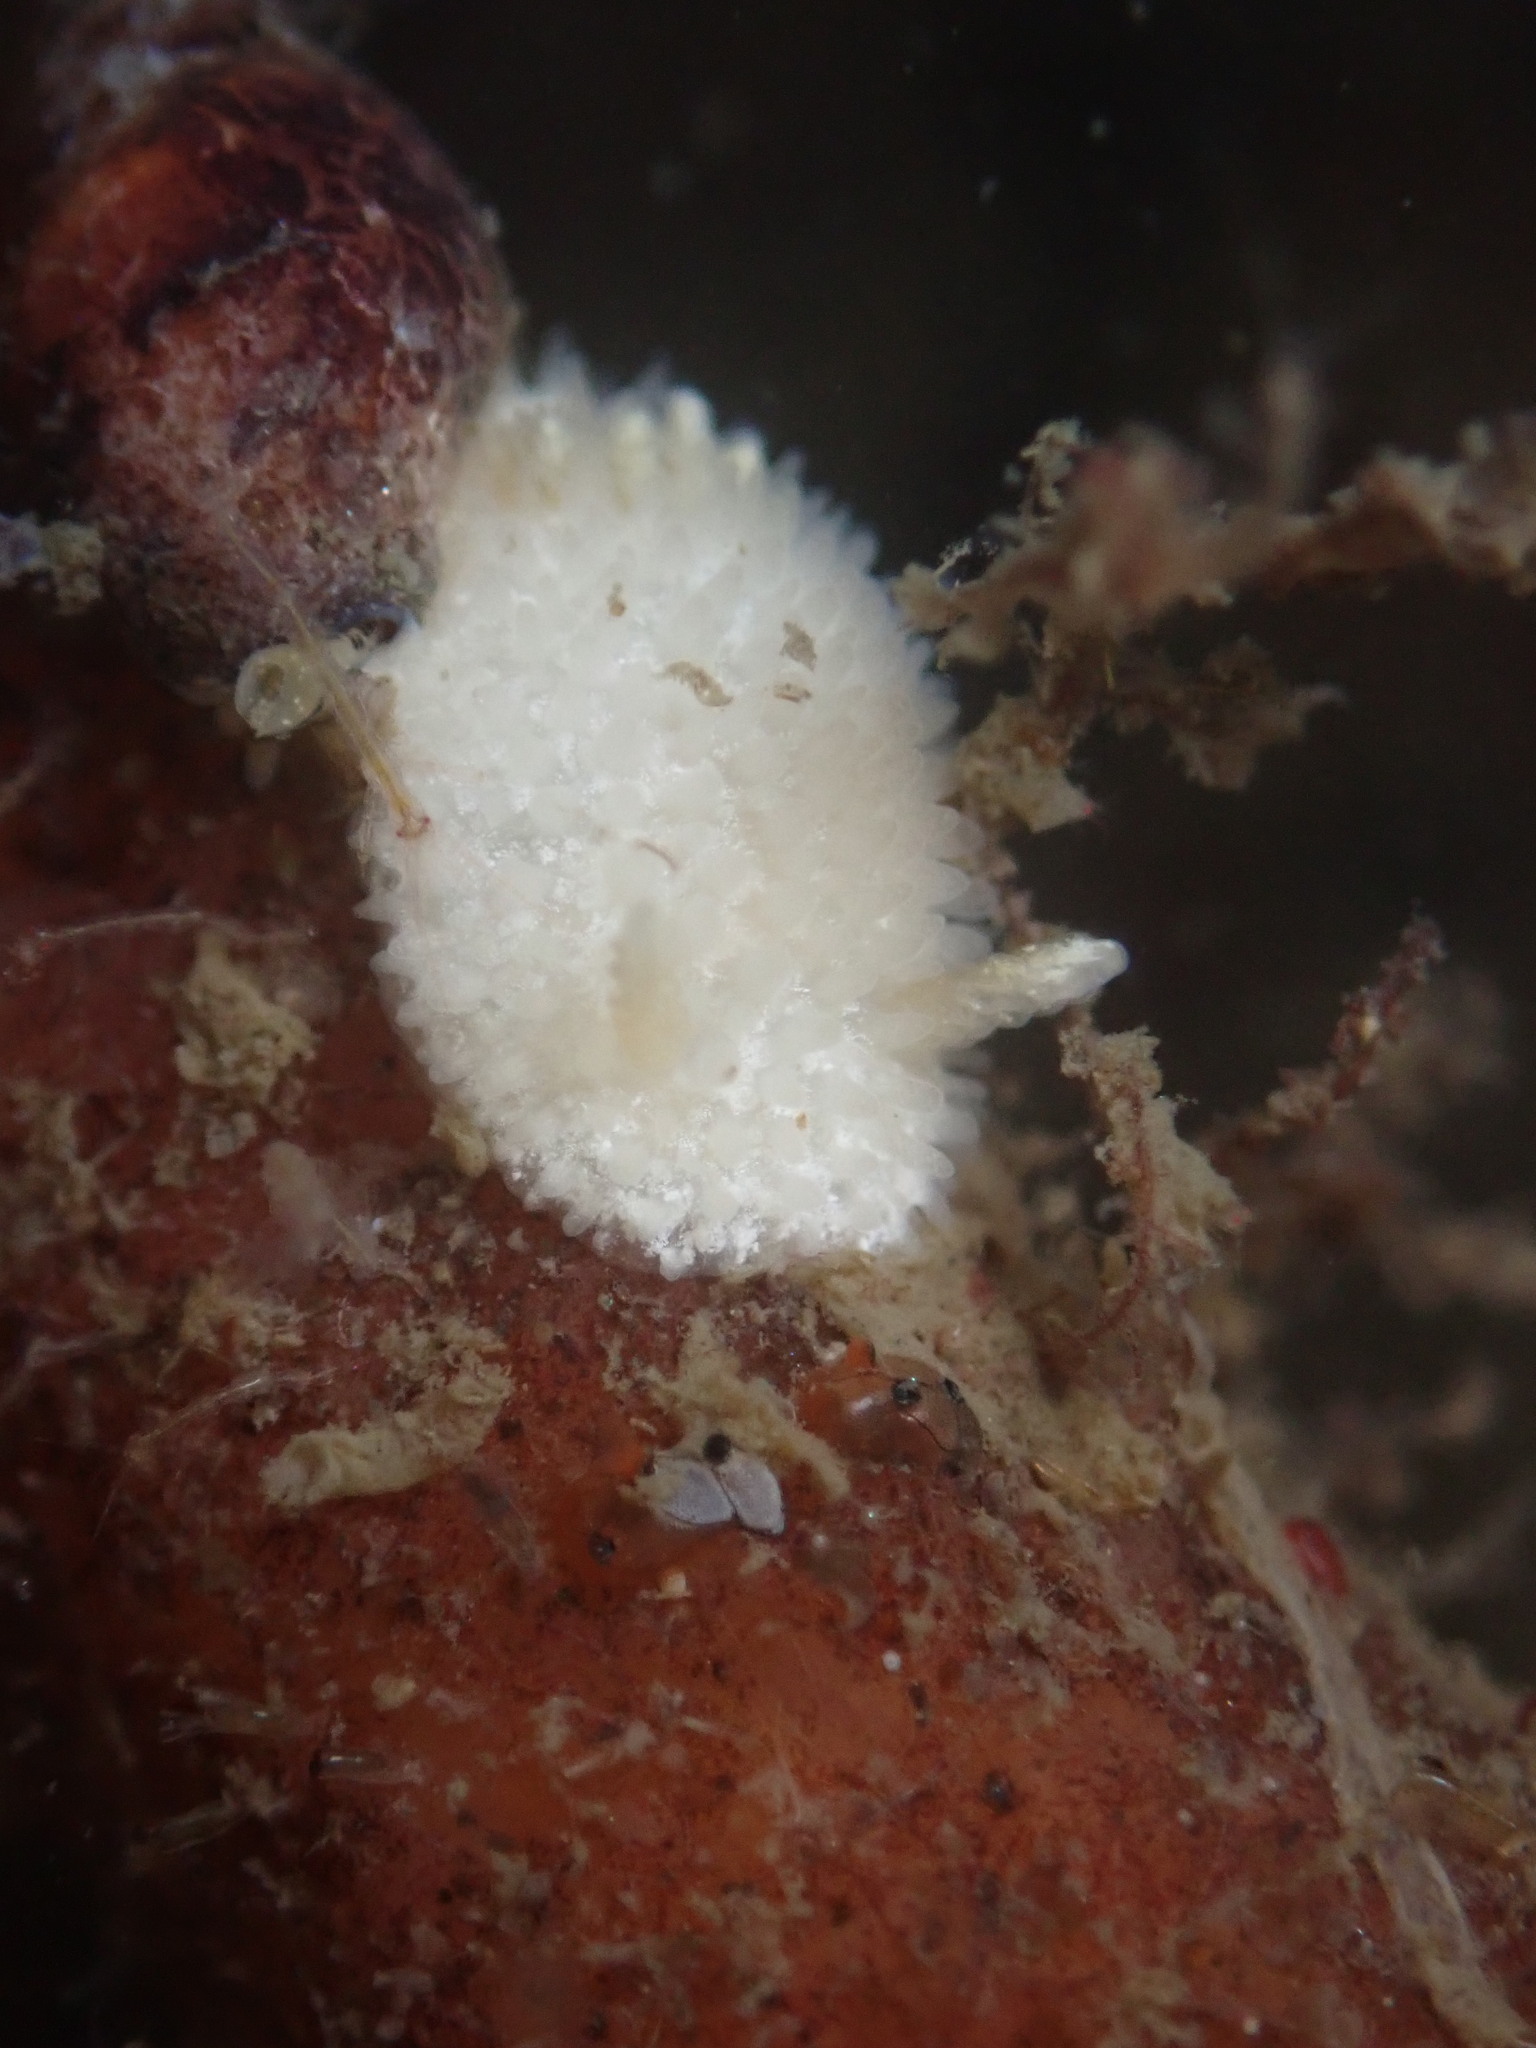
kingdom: Animalia
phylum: Mollusca
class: Gastropoda
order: Nudibranchia
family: Calycidorididae
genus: Diaphorodoris
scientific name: Diaphorodoris lirulatocauda
